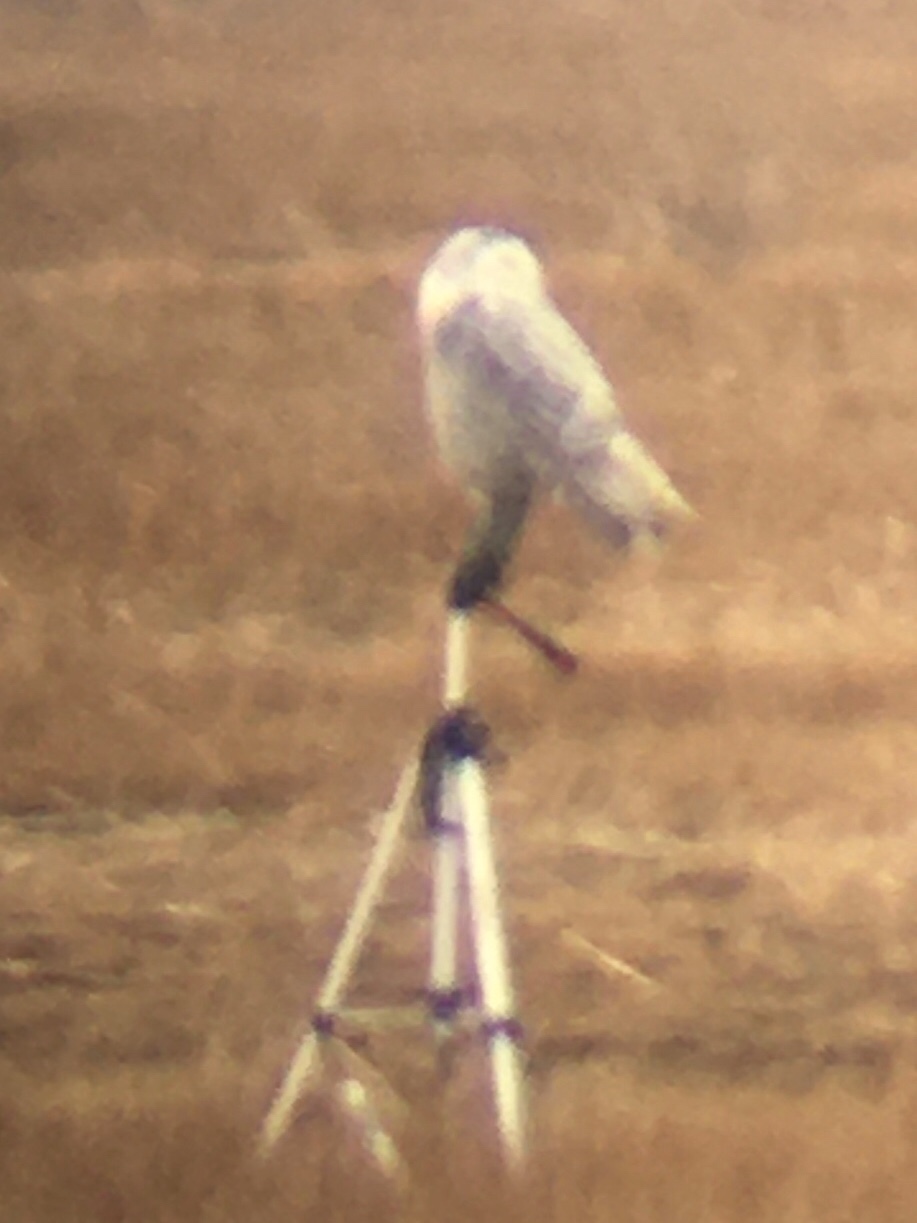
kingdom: Animalia
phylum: Chordata
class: Aves
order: Strigiformes
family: Strigidae
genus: Bubo
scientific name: Bubo scandiacus
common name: Snowy owl
